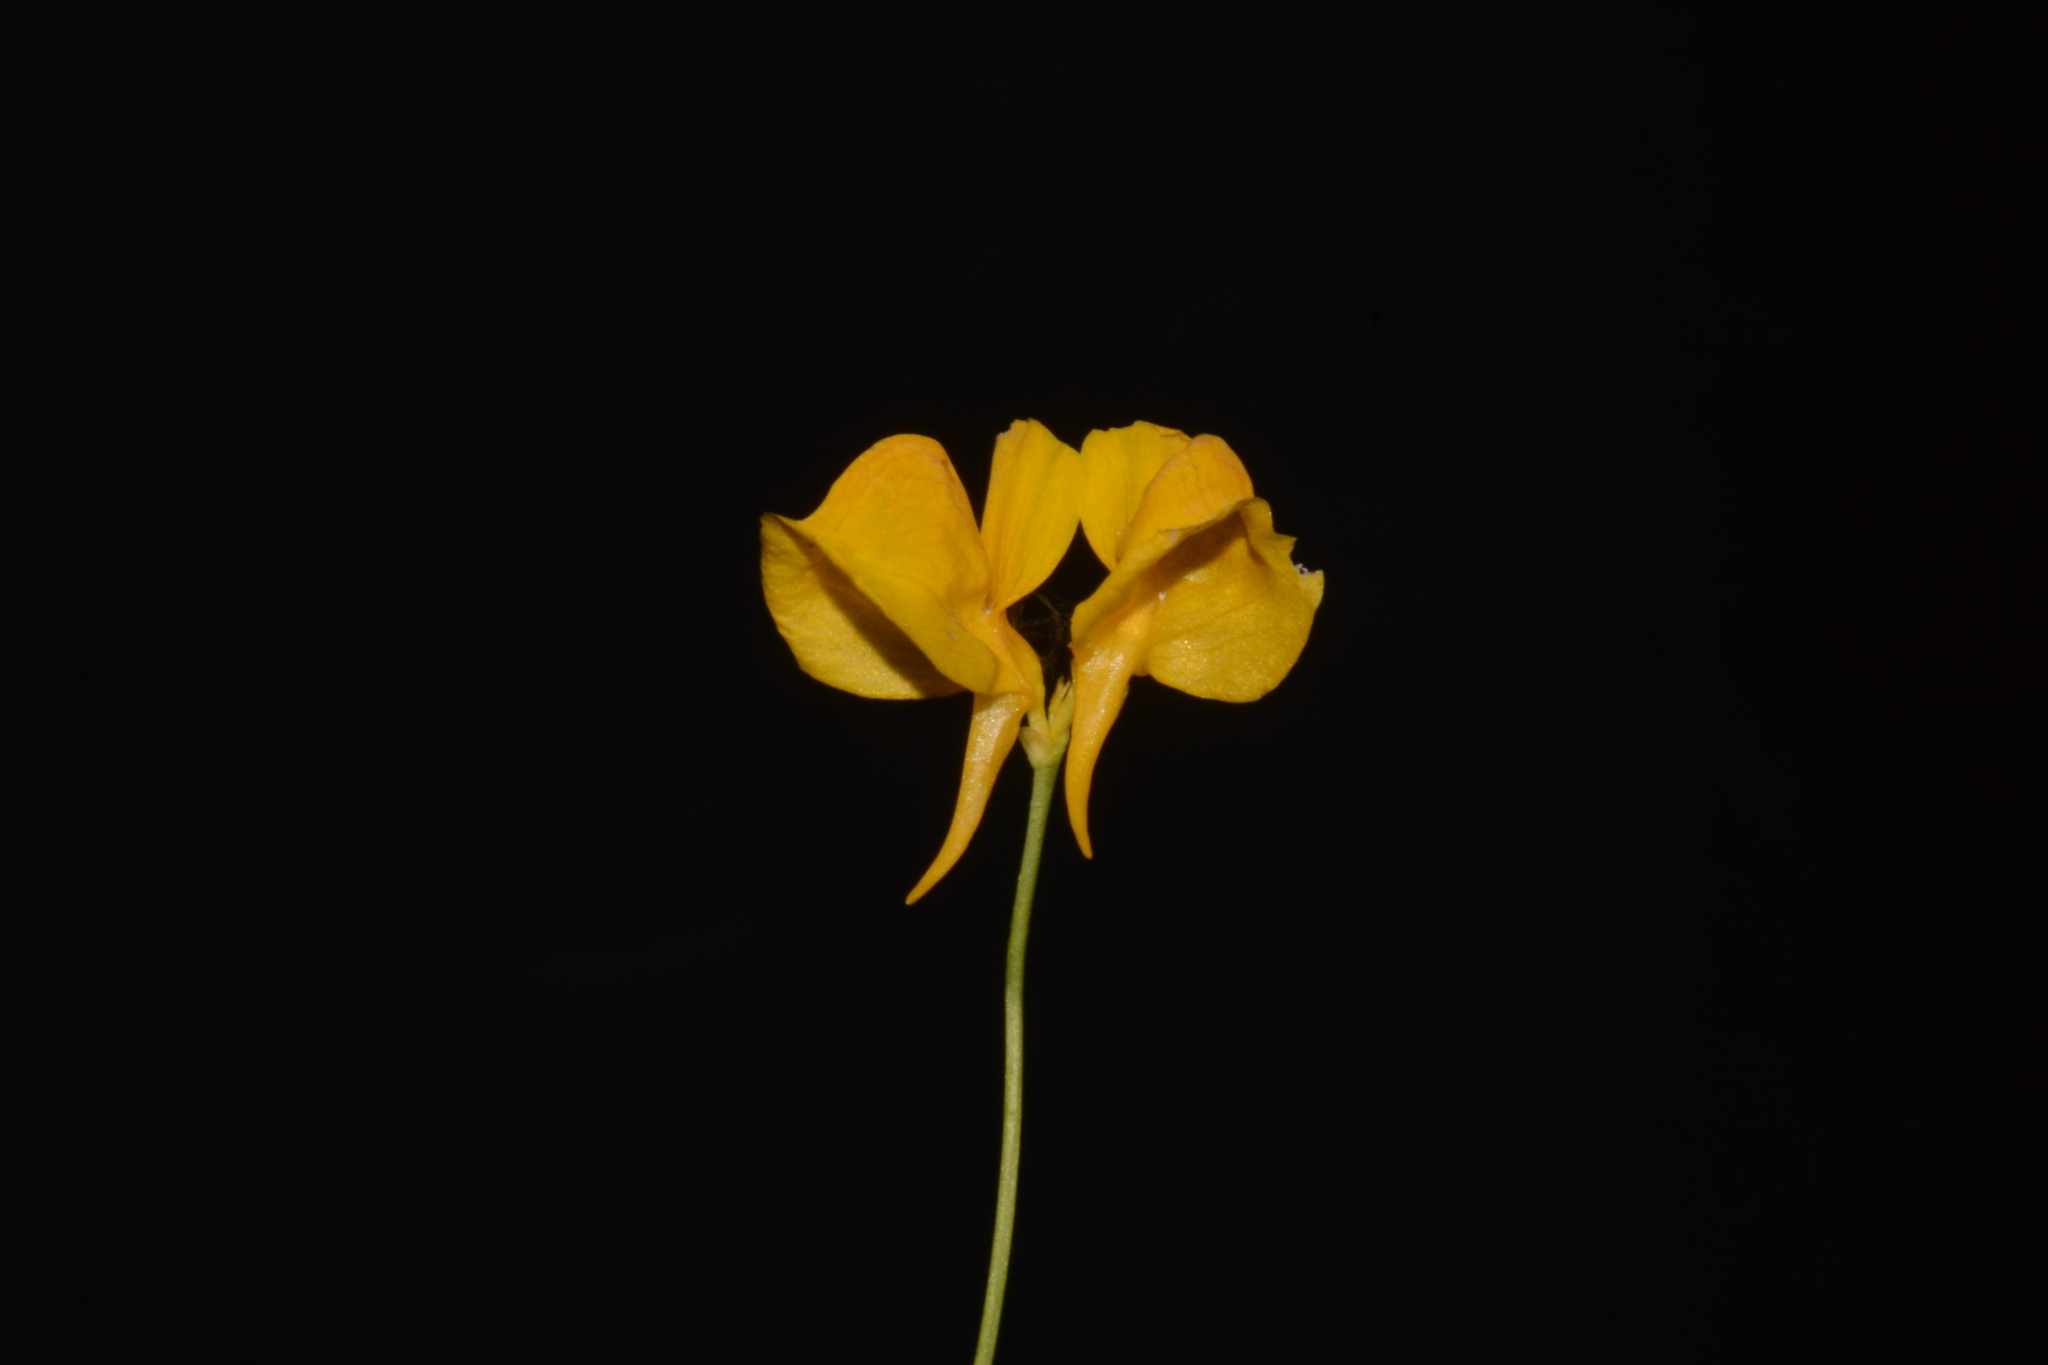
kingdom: Plantae
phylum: Tracheophyta
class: Magnoliopsida
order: Lamiales
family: Lentibulariaceae
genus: Utricularia
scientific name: Utricularia cornuta
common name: Horned bladderwort
